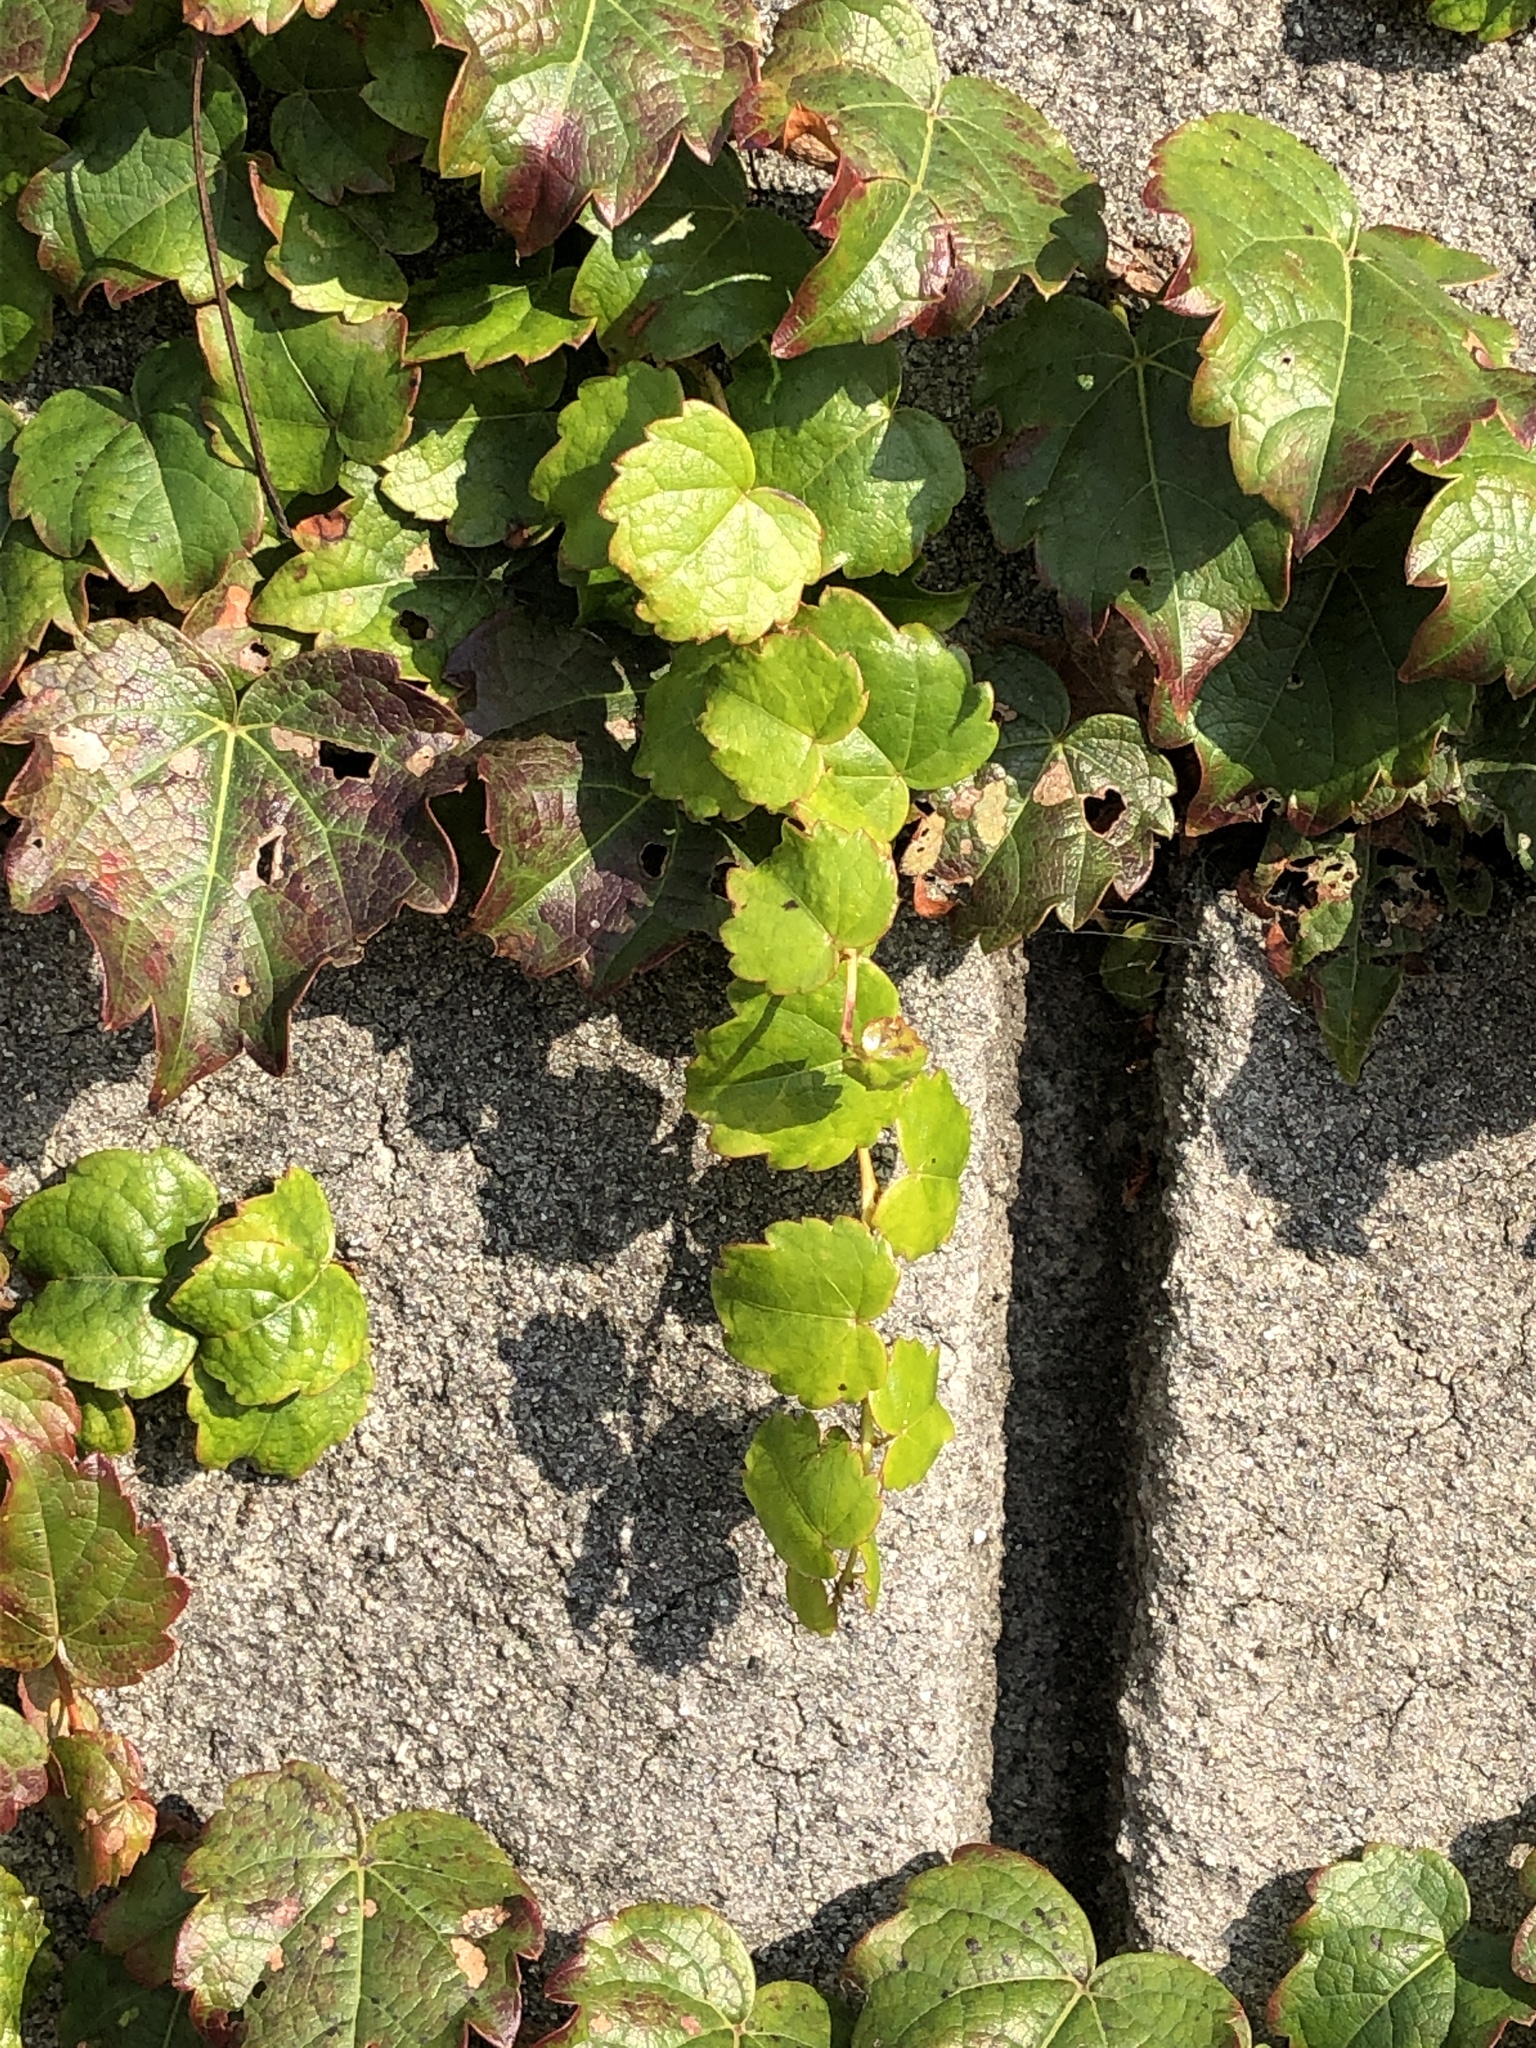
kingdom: Plantae
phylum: Tracheophyta
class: Magnoliopsida
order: Vitales
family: Vitaceae
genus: Parthenocissus
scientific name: Parthenocissus tricuspidata
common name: Boston ivy
